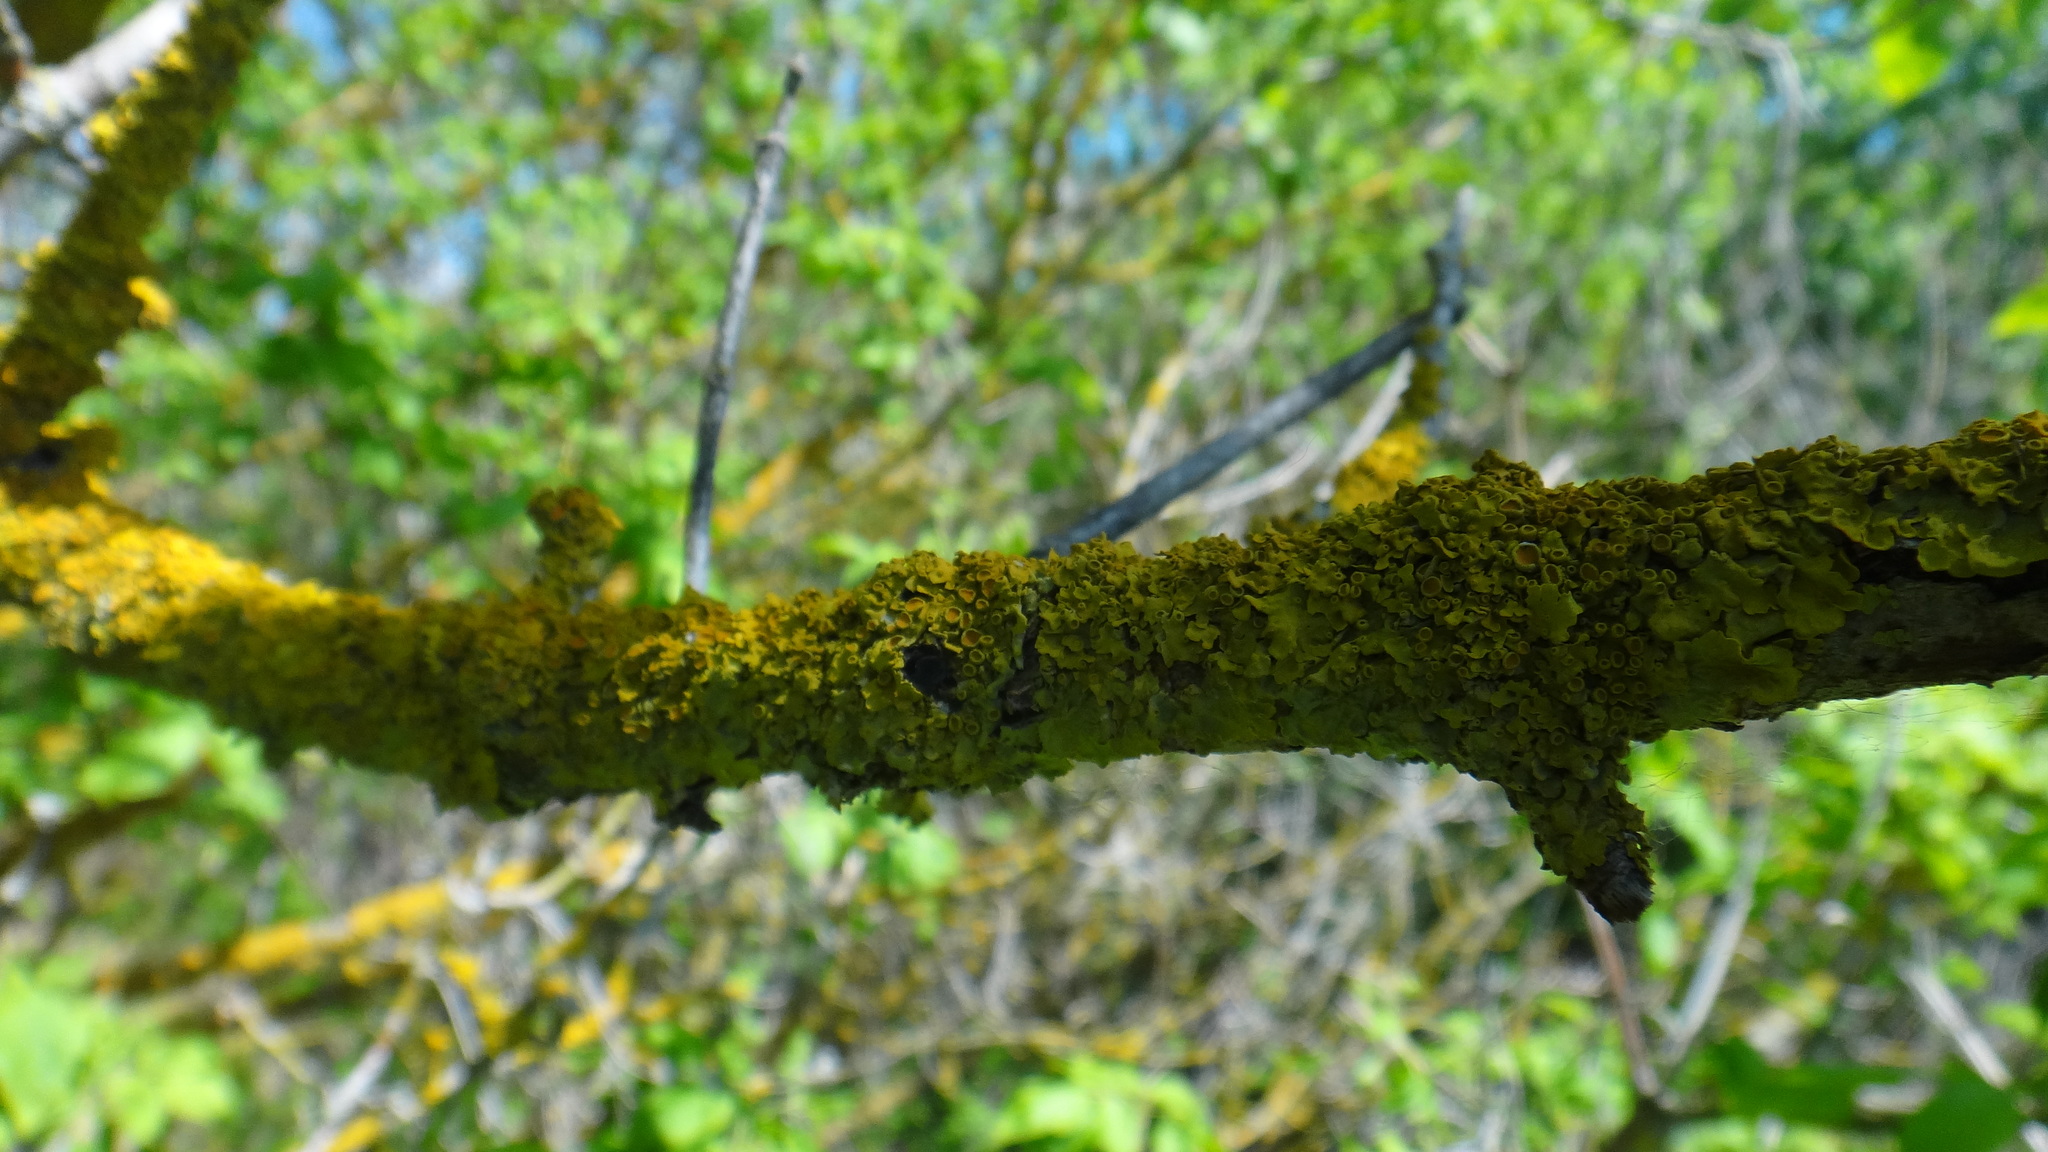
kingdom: Fungi
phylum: Ascomycota
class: Lecanoromycetes
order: Teloschistales
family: Teloschistaceae
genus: Xanthoria
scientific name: Xanthoria parietina
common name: Common orange lichen
